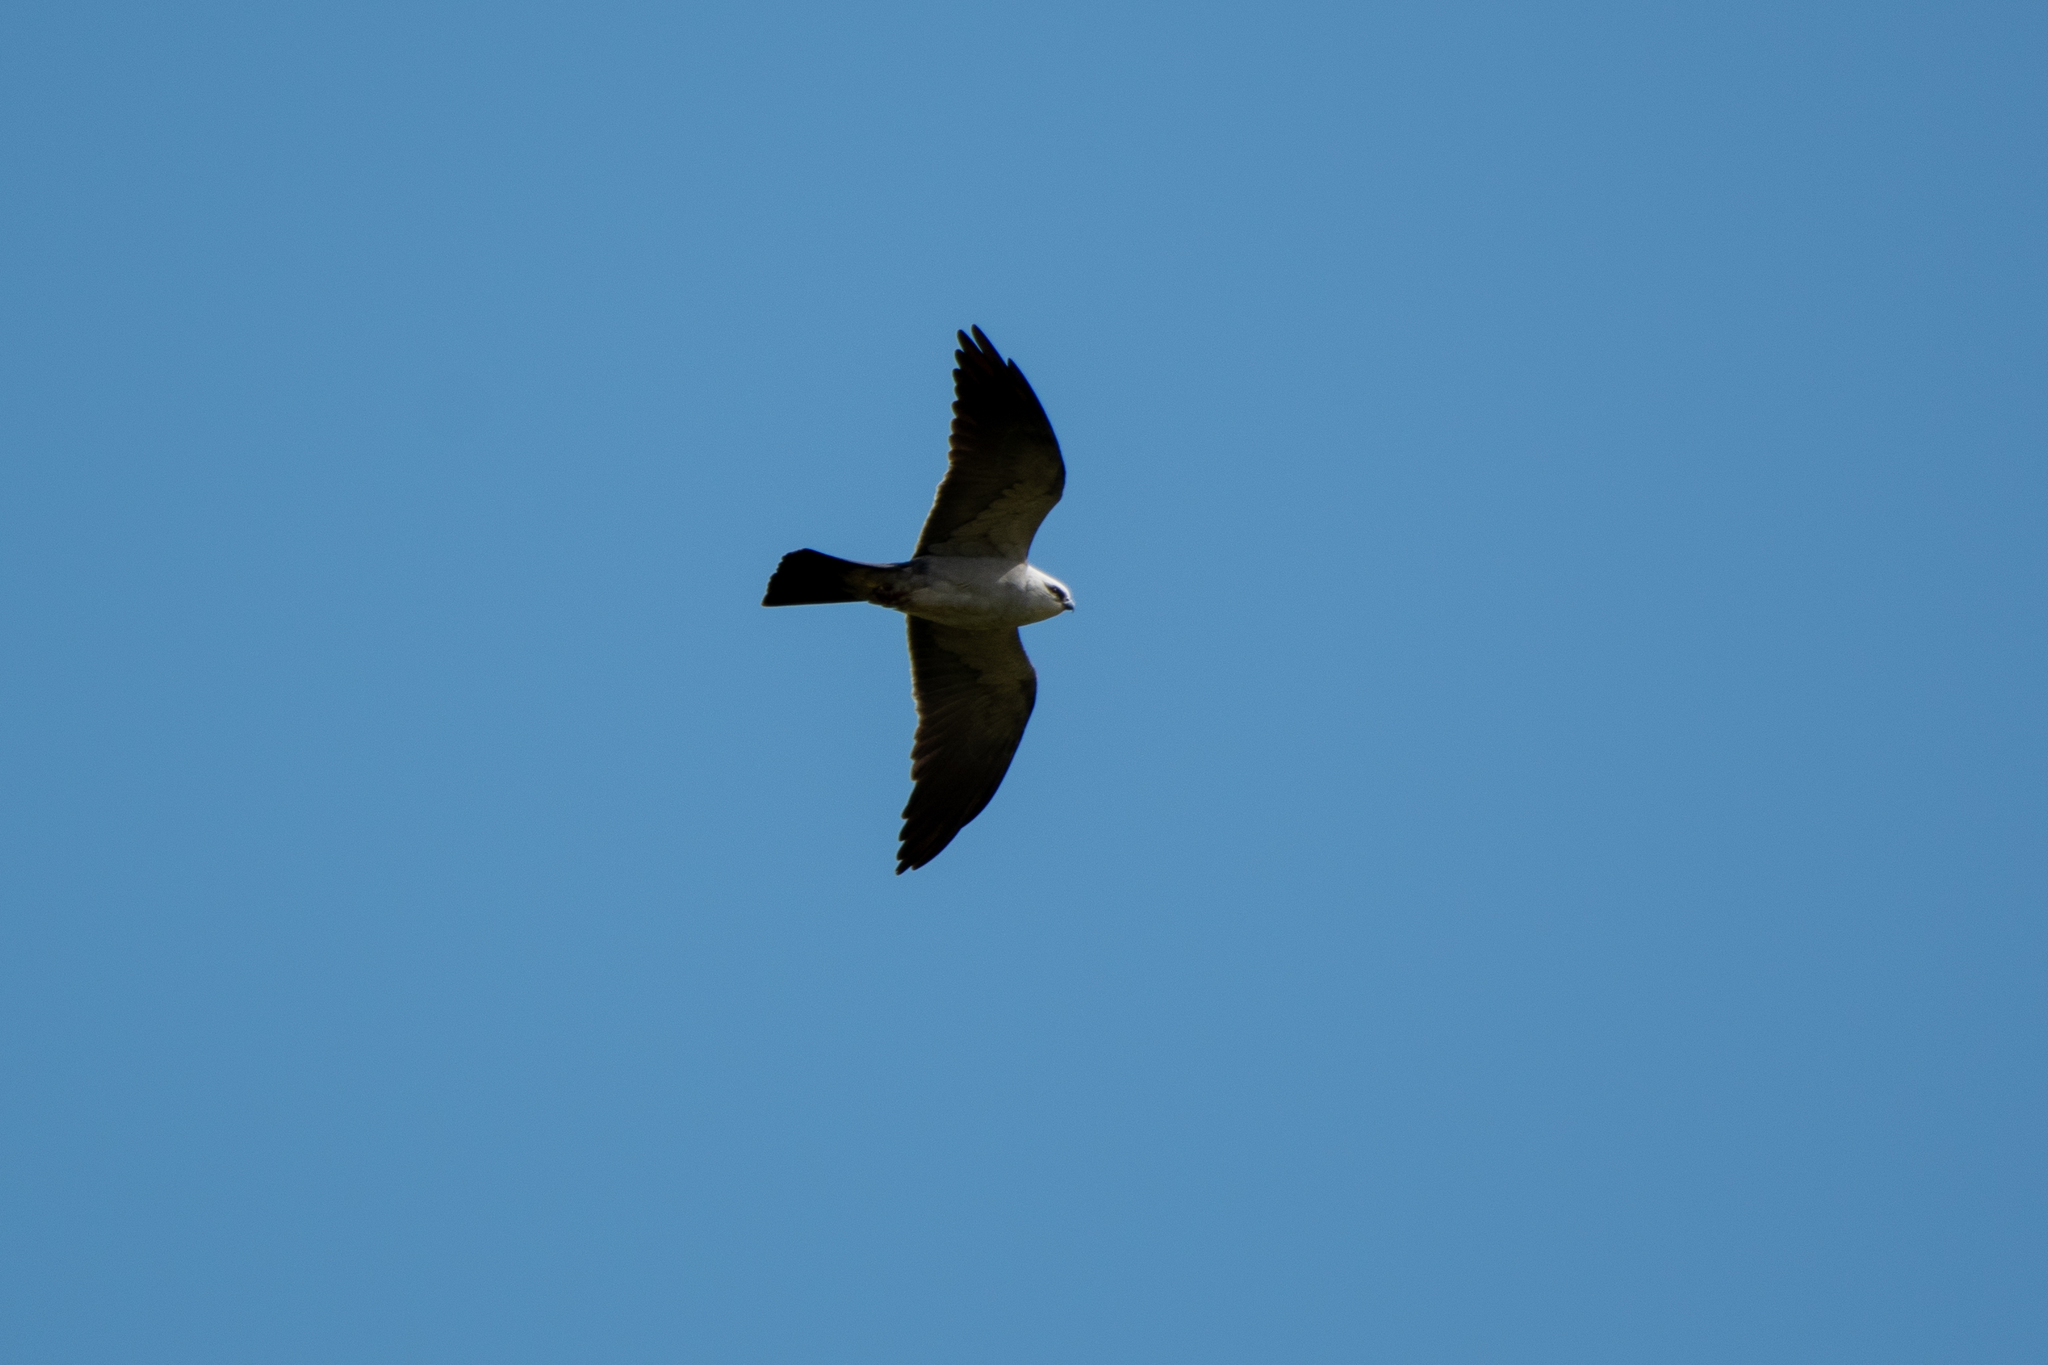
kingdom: Animalia
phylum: Chordata
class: Aves
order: Accipitriformes
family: Accipitridae
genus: Ictinia
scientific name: Ictinia mississippiensis
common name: Mississippi kite
